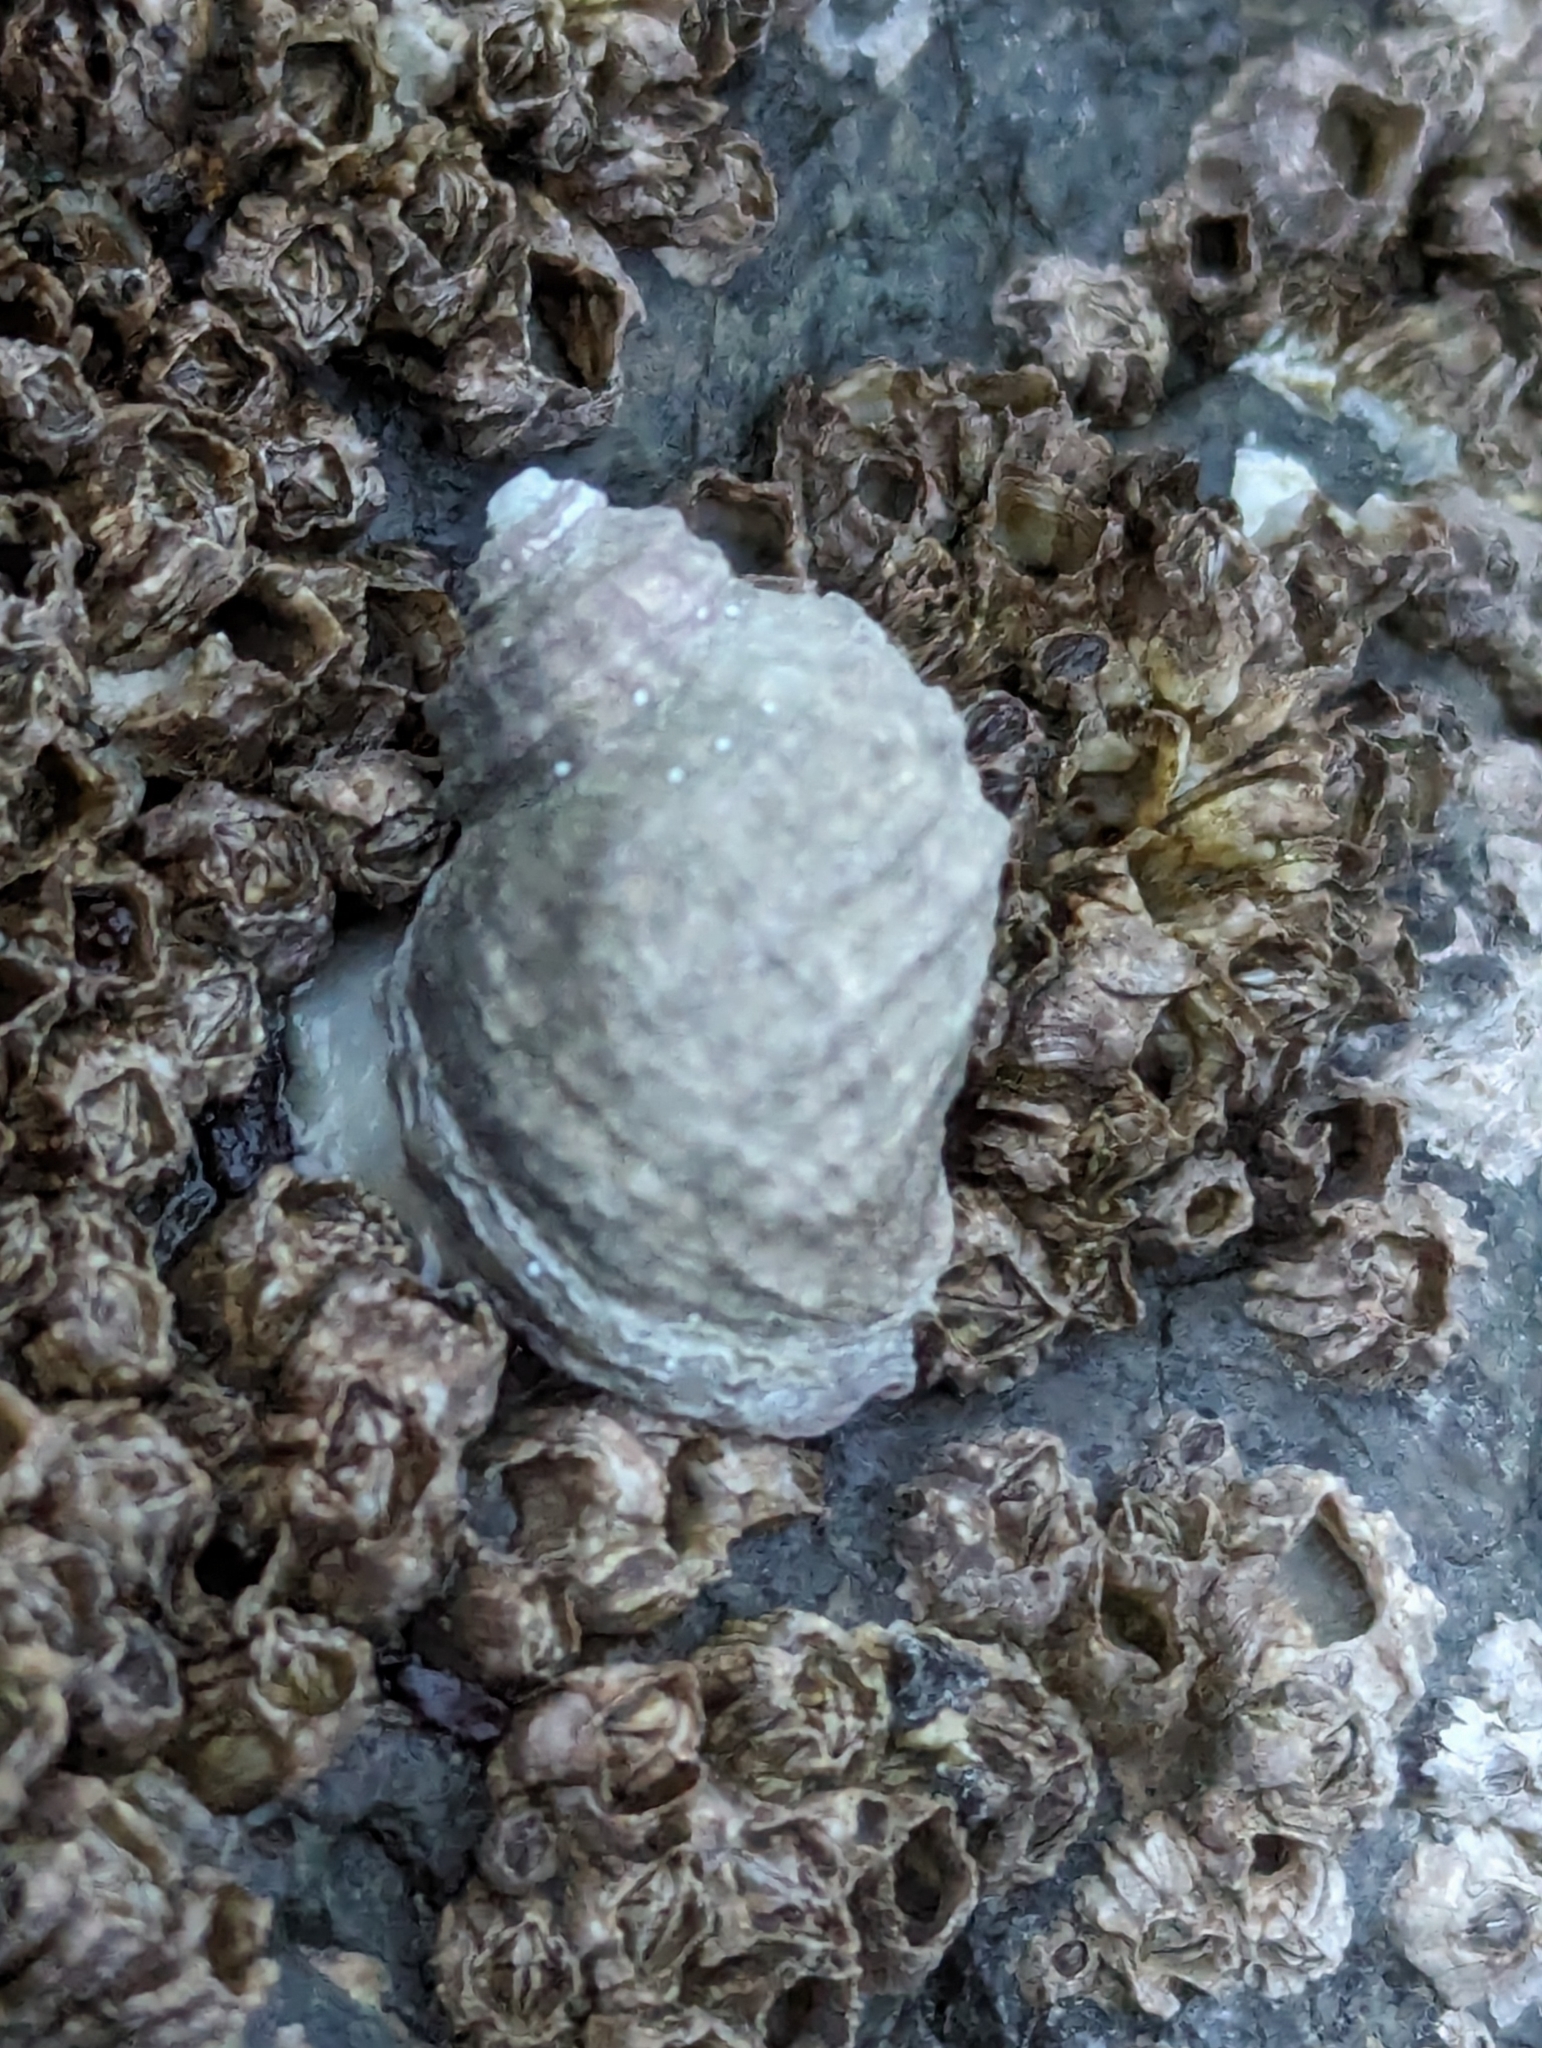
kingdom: Animalia
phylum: Mollusca
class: Gastropoda
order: Neogastropoda
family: Muricidae
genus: Nucella
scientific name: Nucella ostrina
